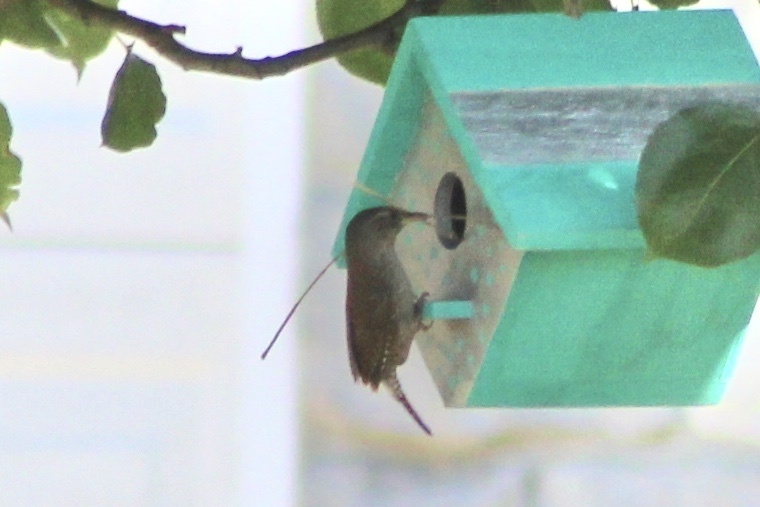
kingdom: Animalia
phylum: Chordata
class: Aves
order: Passeriformes
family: Troglodytidae
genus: Troglodytes
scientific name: Troglodytes aedon
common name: House wren
